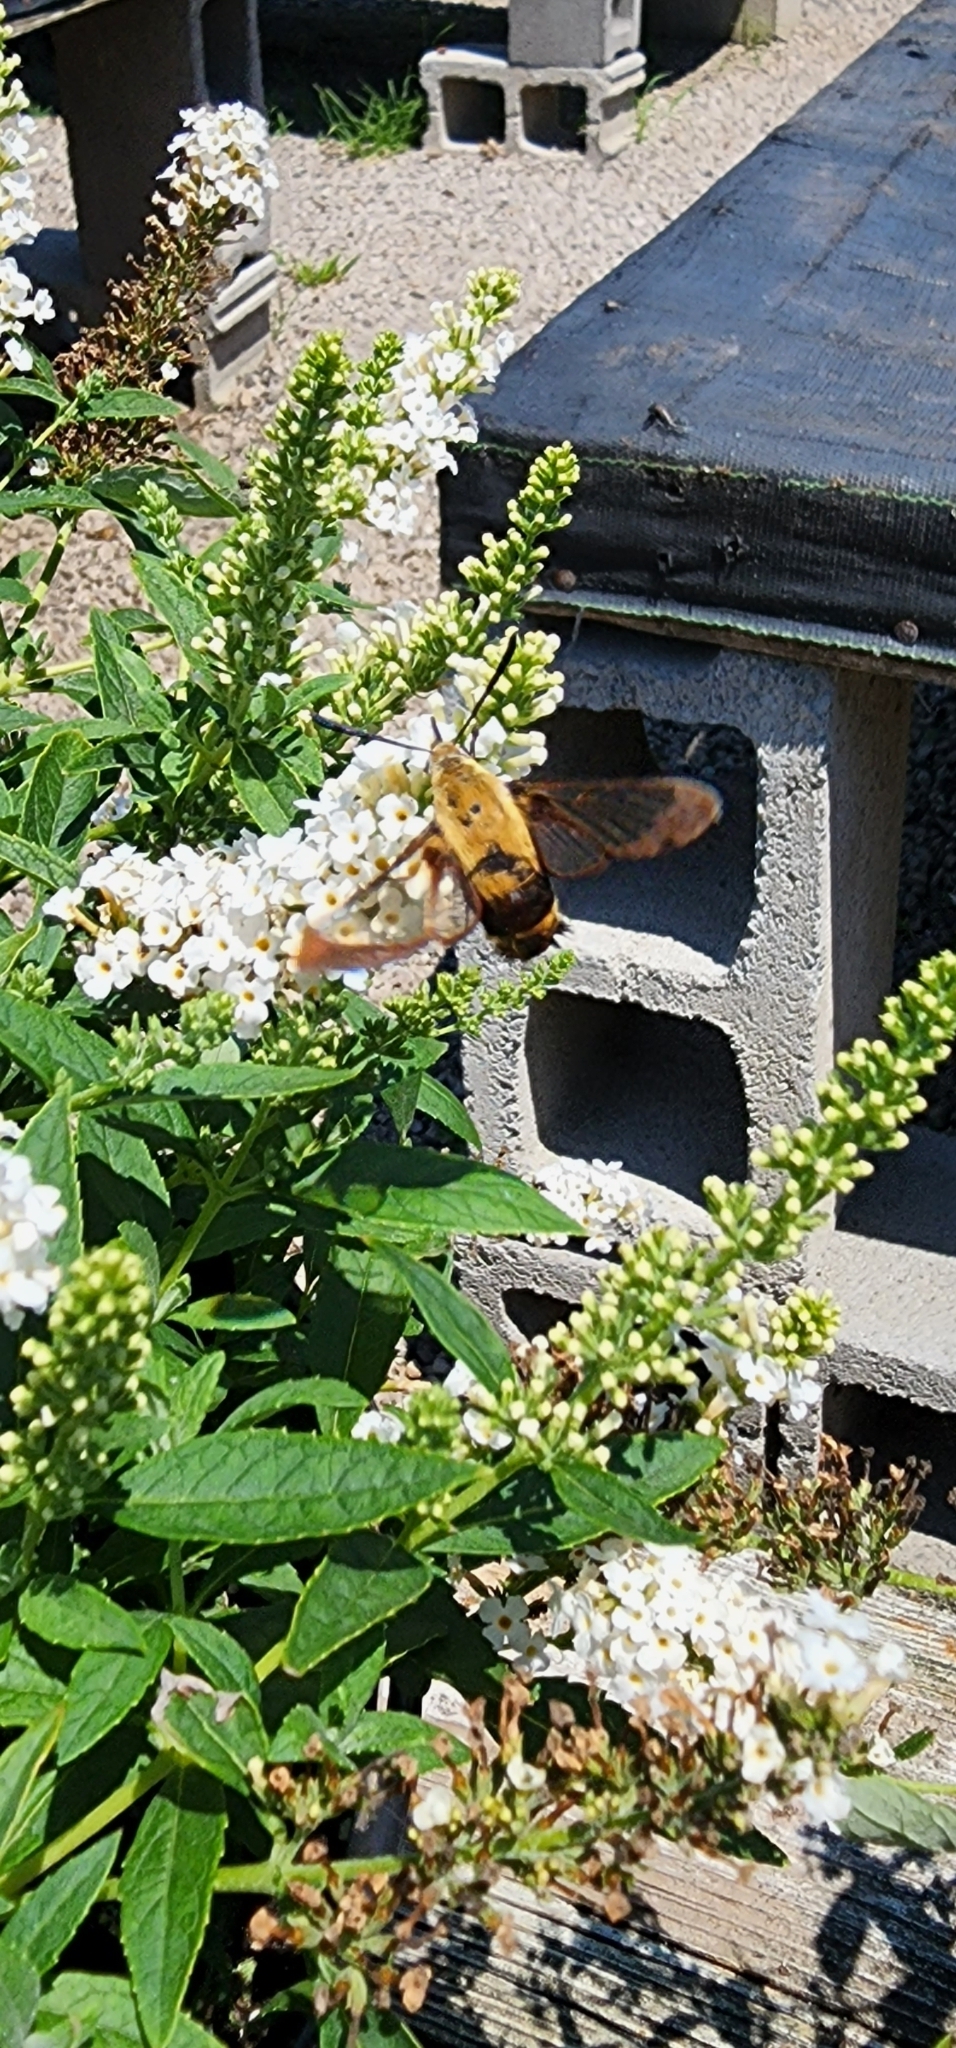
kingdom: Animalia
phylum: Arthropoda
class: Insecta
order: Lepidoptera
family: Sphingidae
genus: Hemaris
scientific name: Hemaris diffinis
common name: Bumblebee moth
